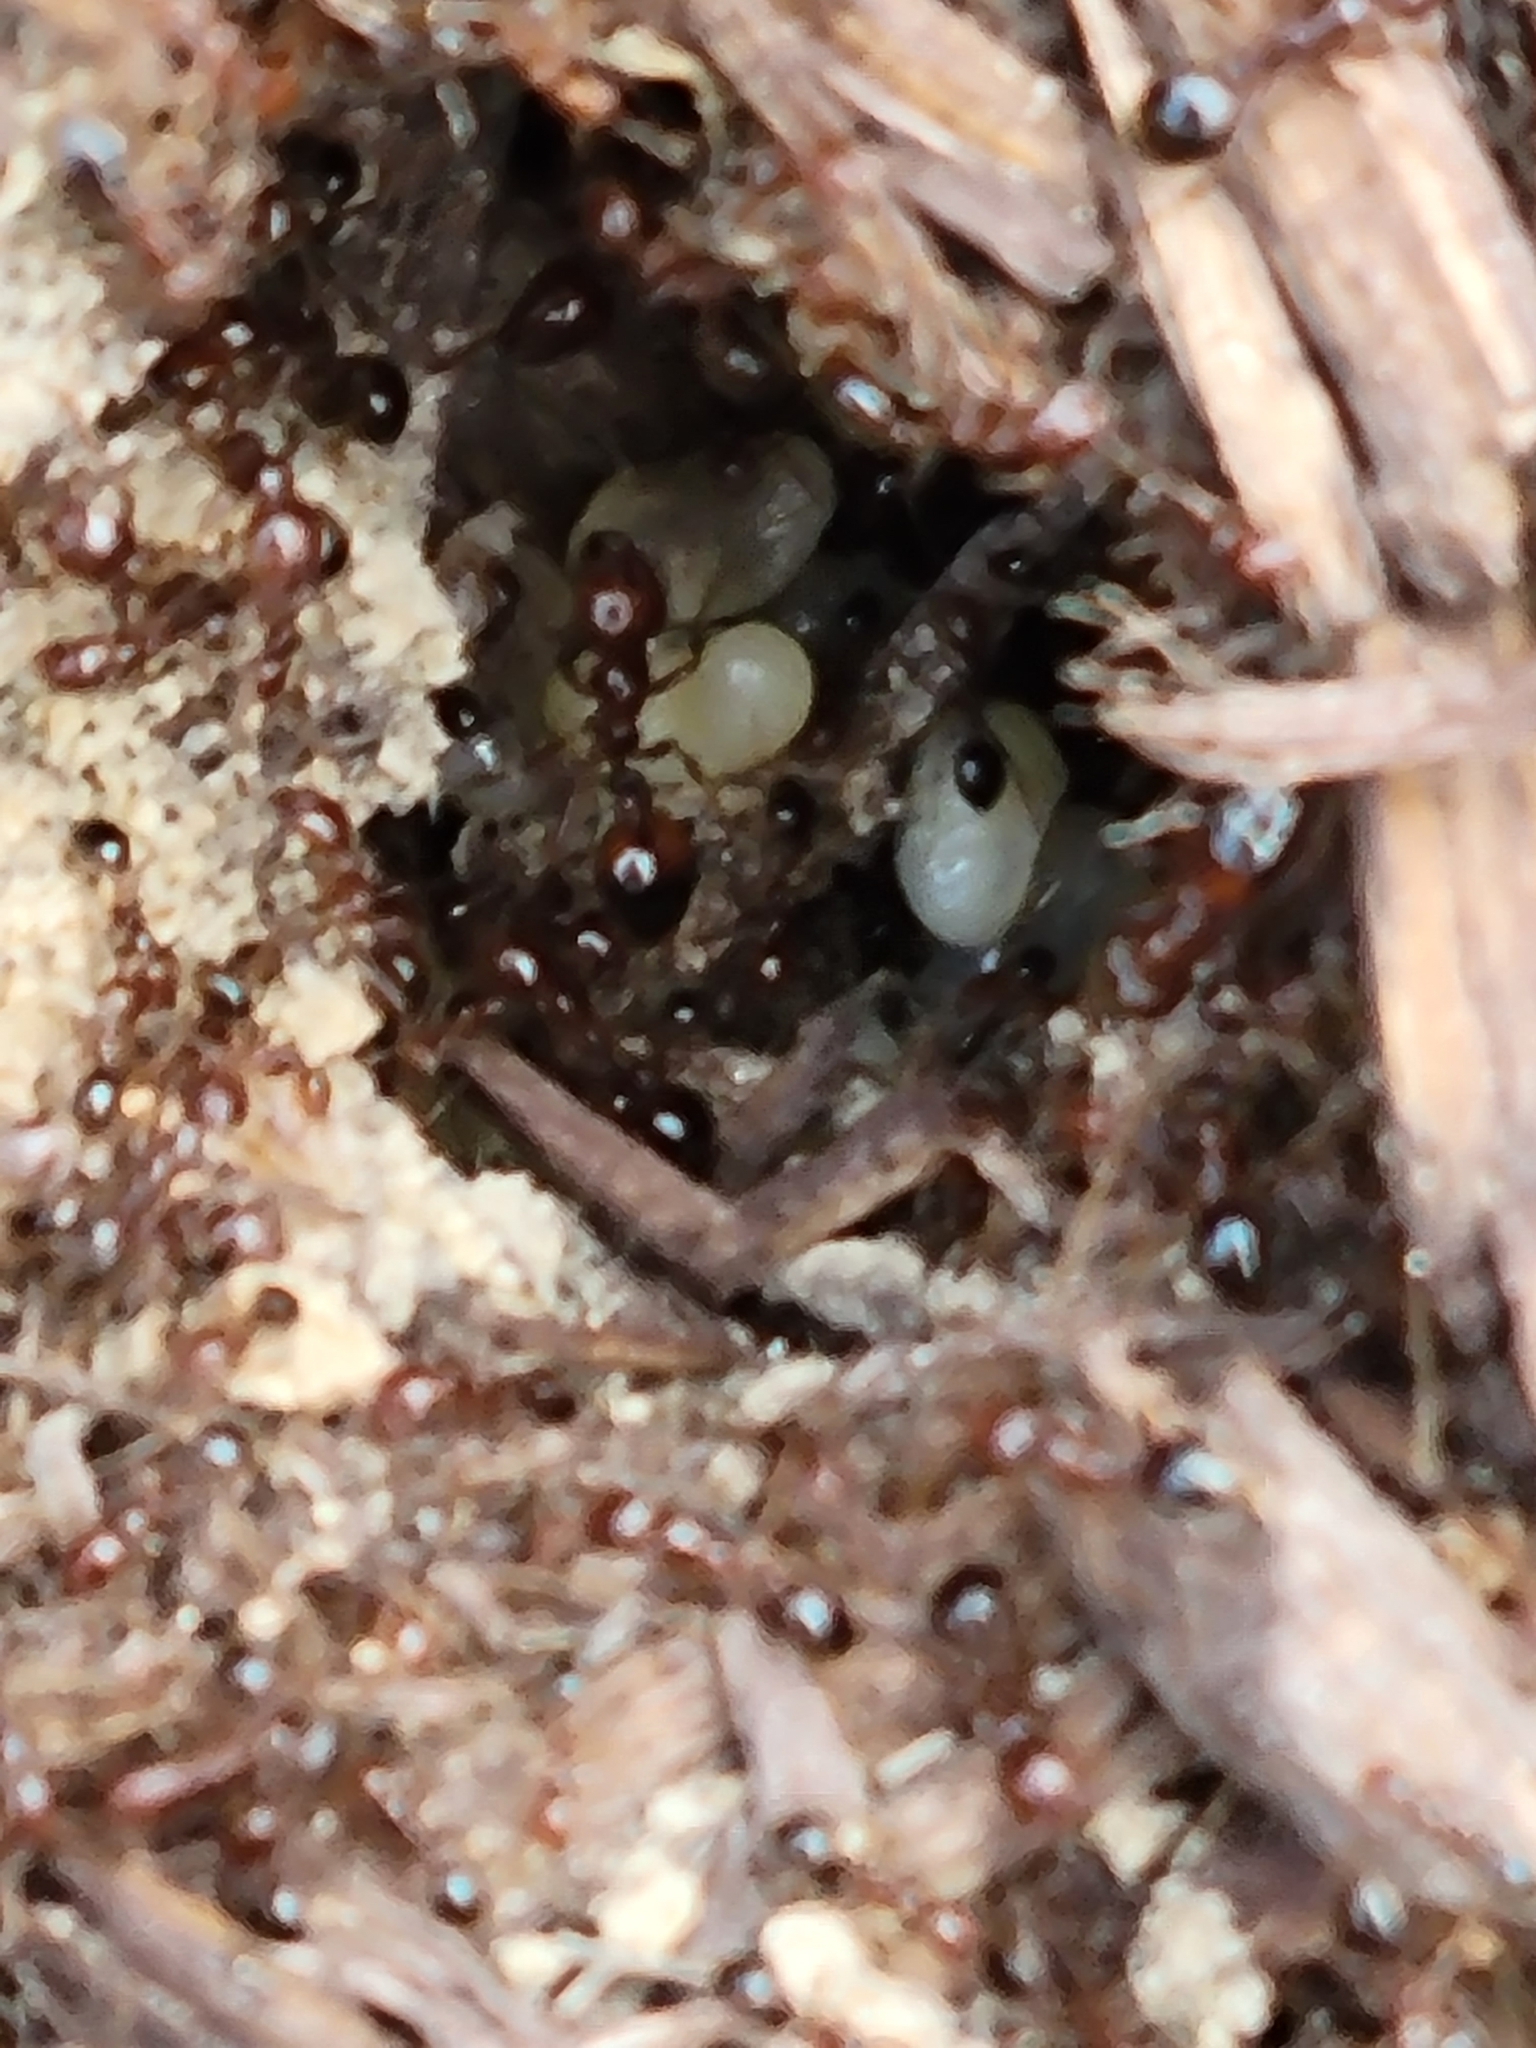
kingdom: Animalia
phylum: Arthropoda
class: Insecta
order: Hymenoptera
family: Formicidae
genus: Solenopsis
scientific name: Solenopsis invicta
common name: Red imported fire ant
